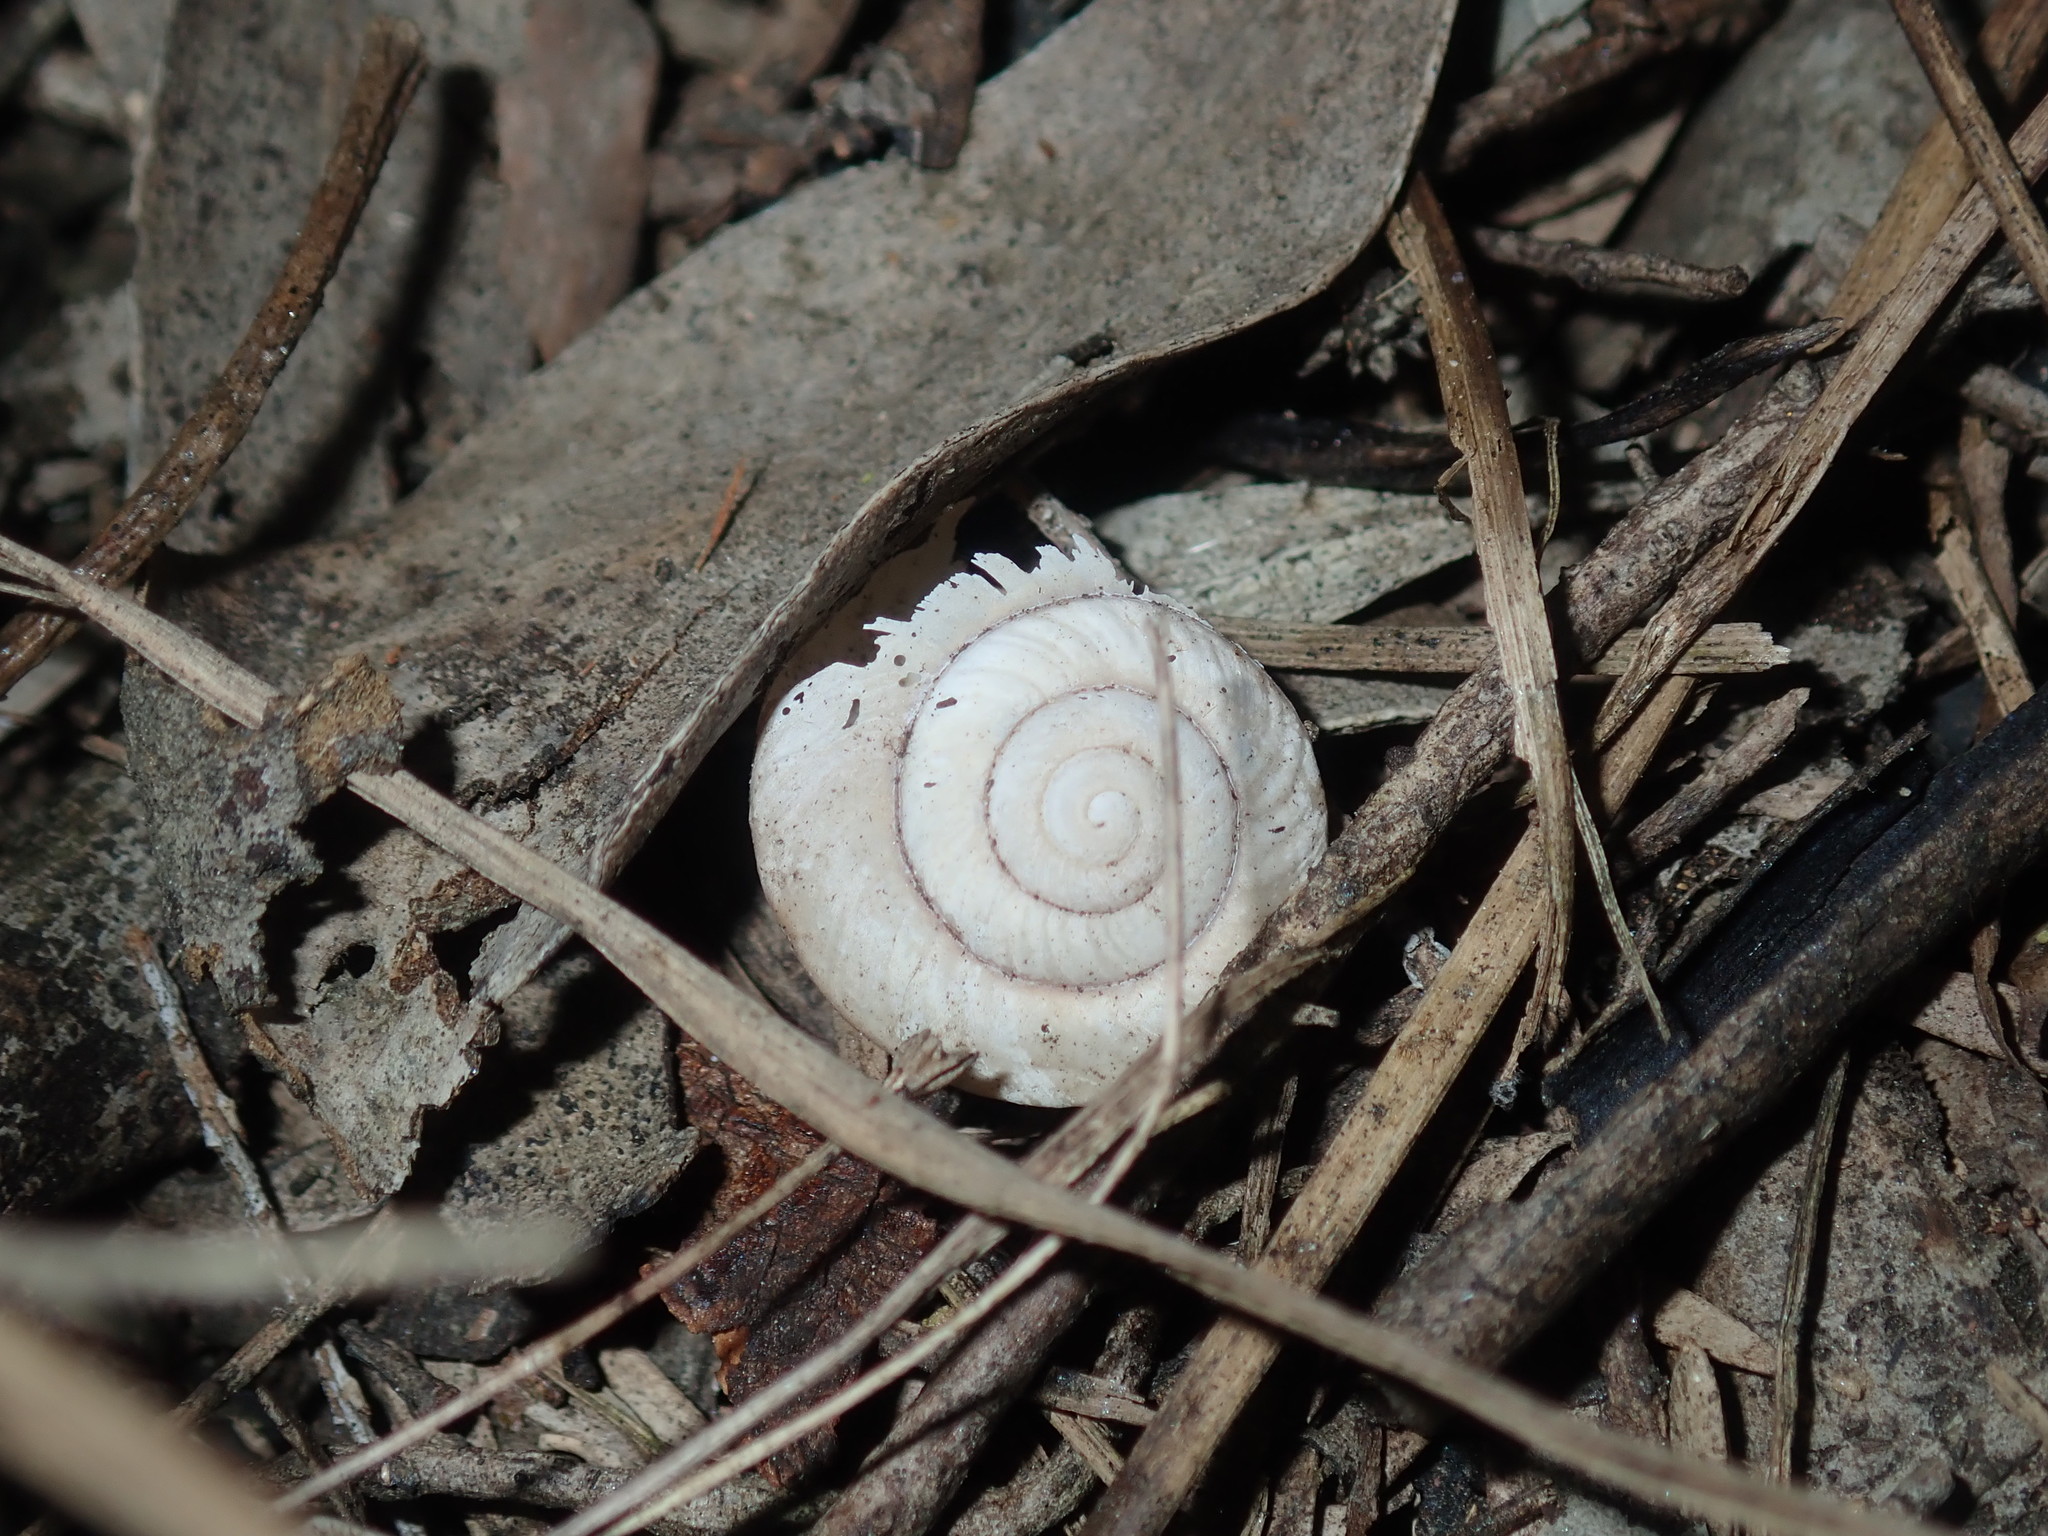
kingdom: Animalia
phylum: Mollusca
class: Gastropoda
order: Stylommatophora
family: Camaenidae
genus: Sauroconcha
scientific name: Sauroconcha sheai
